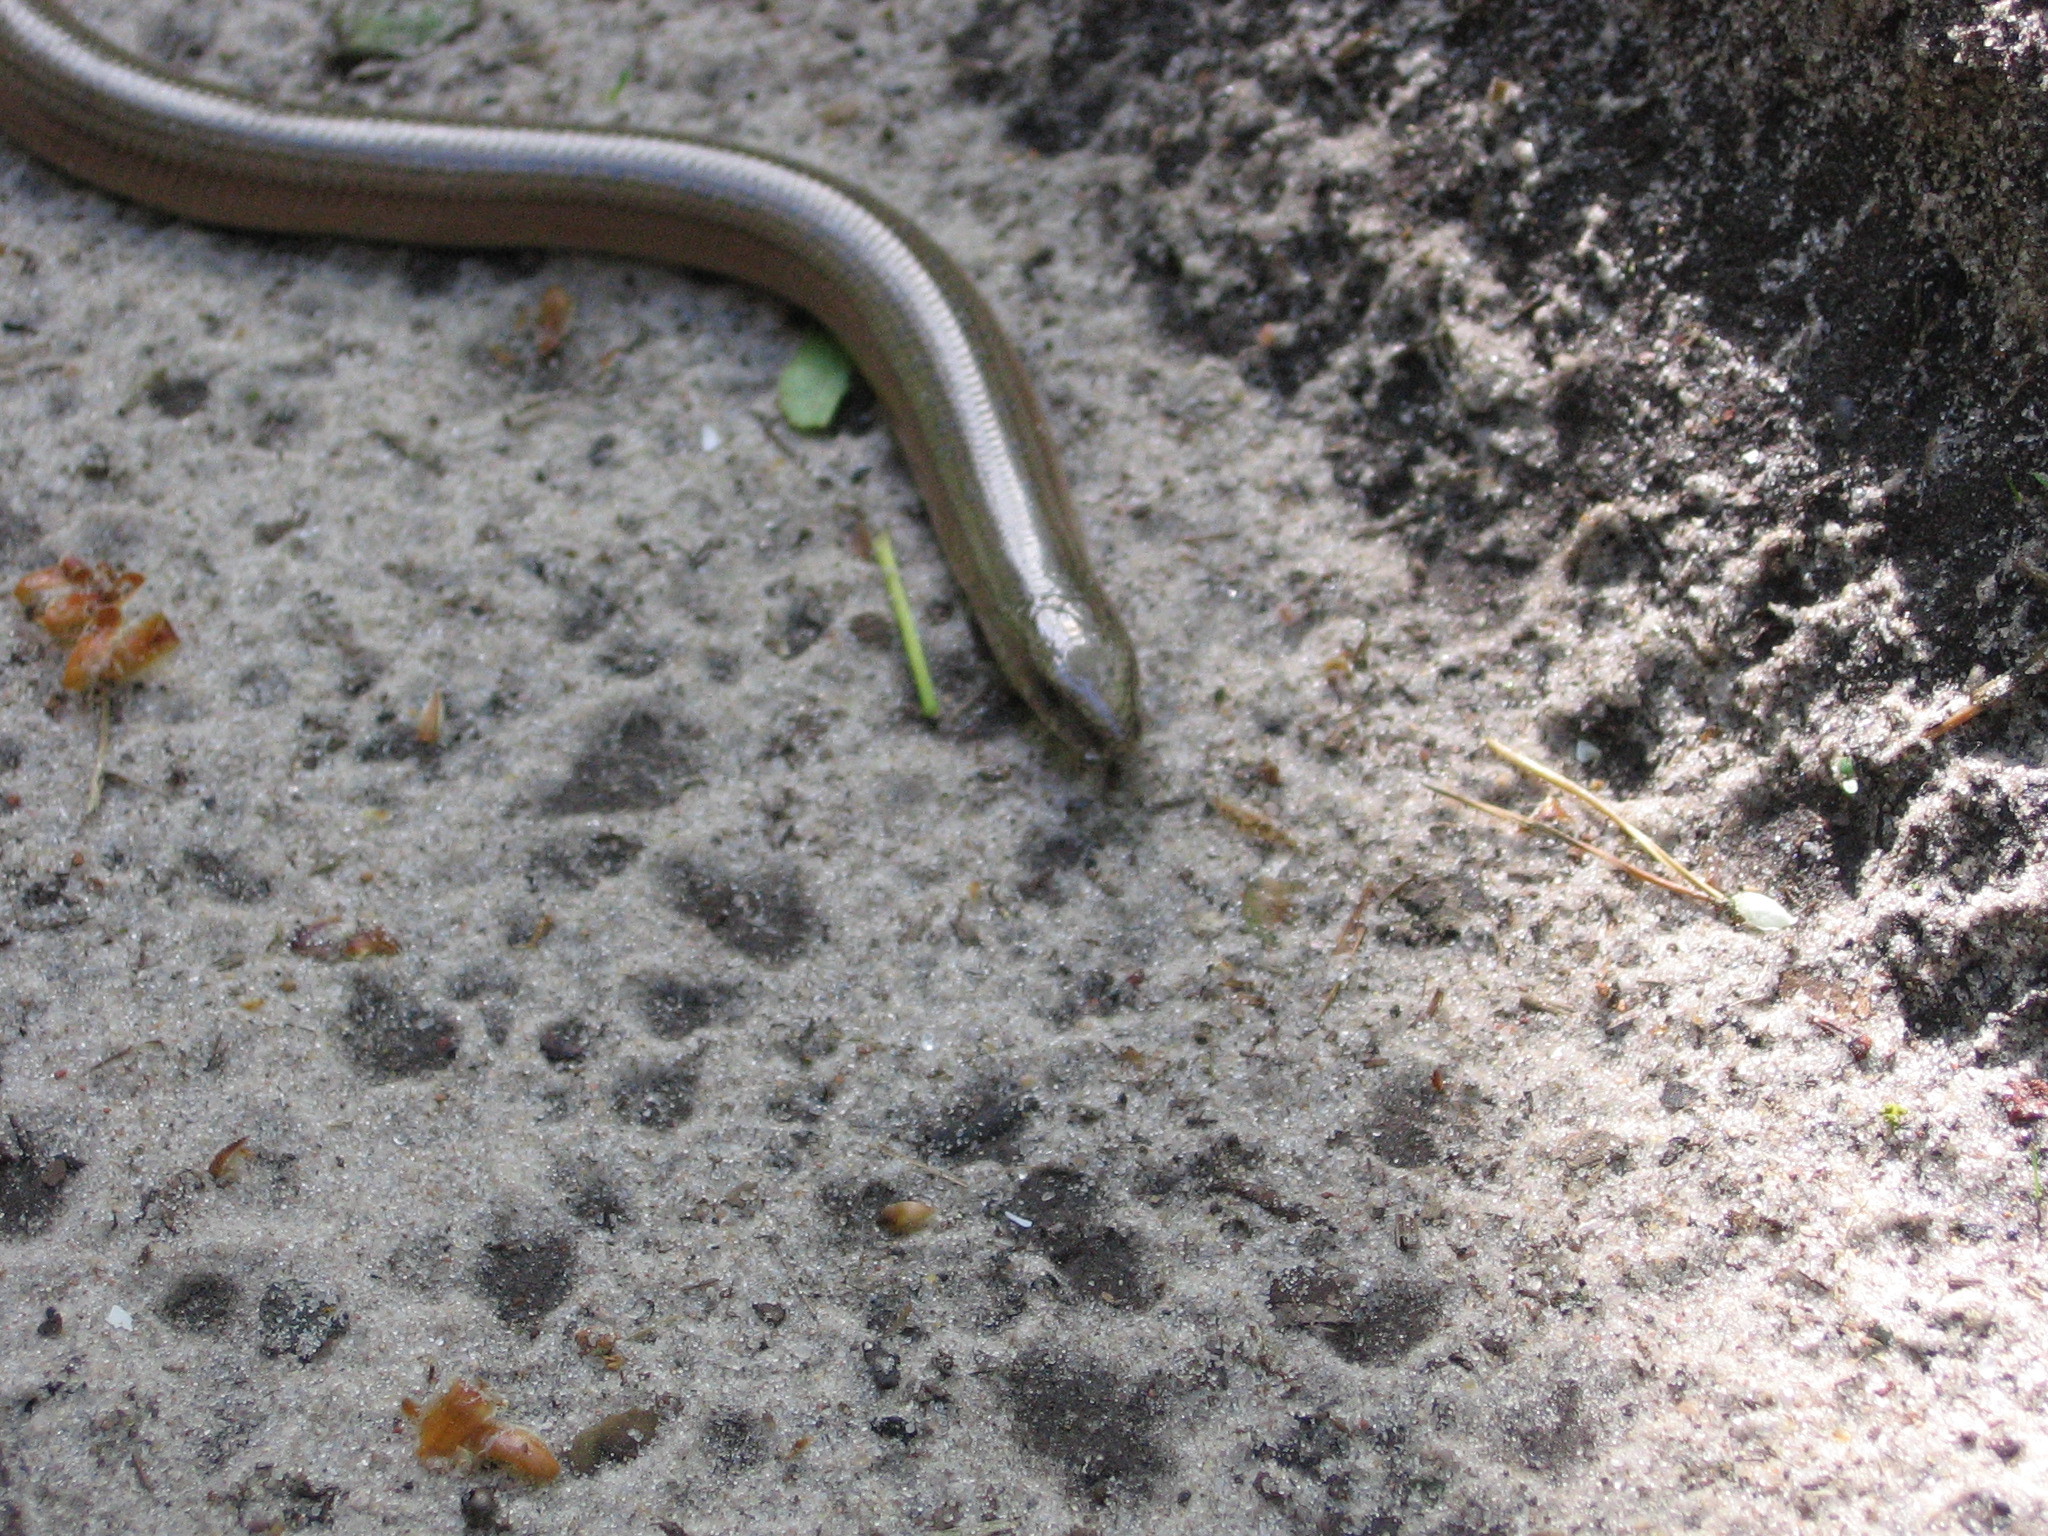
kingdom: Animalia
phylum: Chordata
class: Squamata
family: Anguidae
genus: Anguis
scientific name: Anguis colchica
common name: Slow worm
